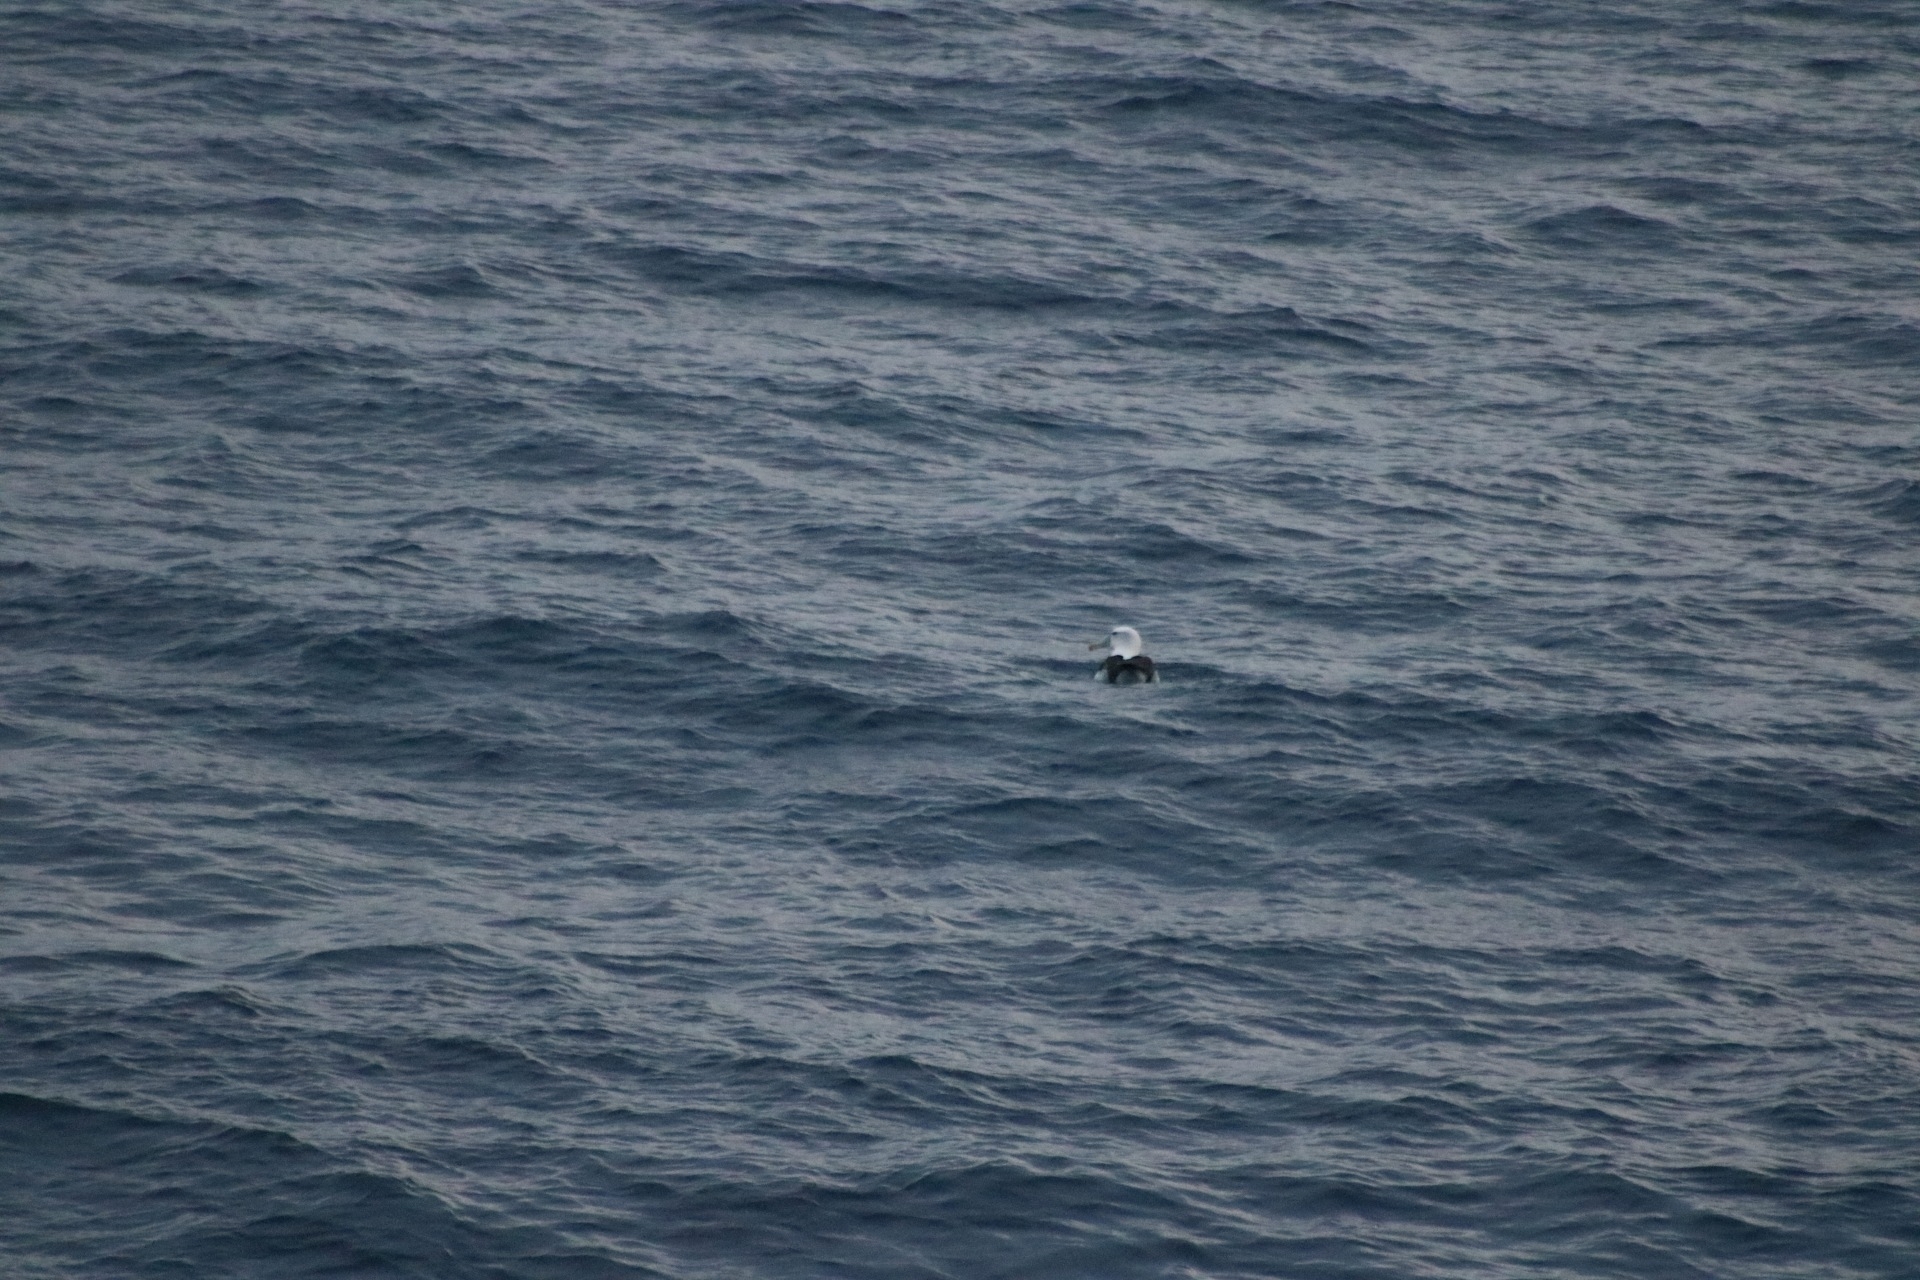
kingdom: Animalia
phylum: Chordata
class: Aves
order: Procellariiformes
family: Diomedeidae
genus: Thalassarche
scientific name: Thalassarche cauta
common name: Shy albatross
